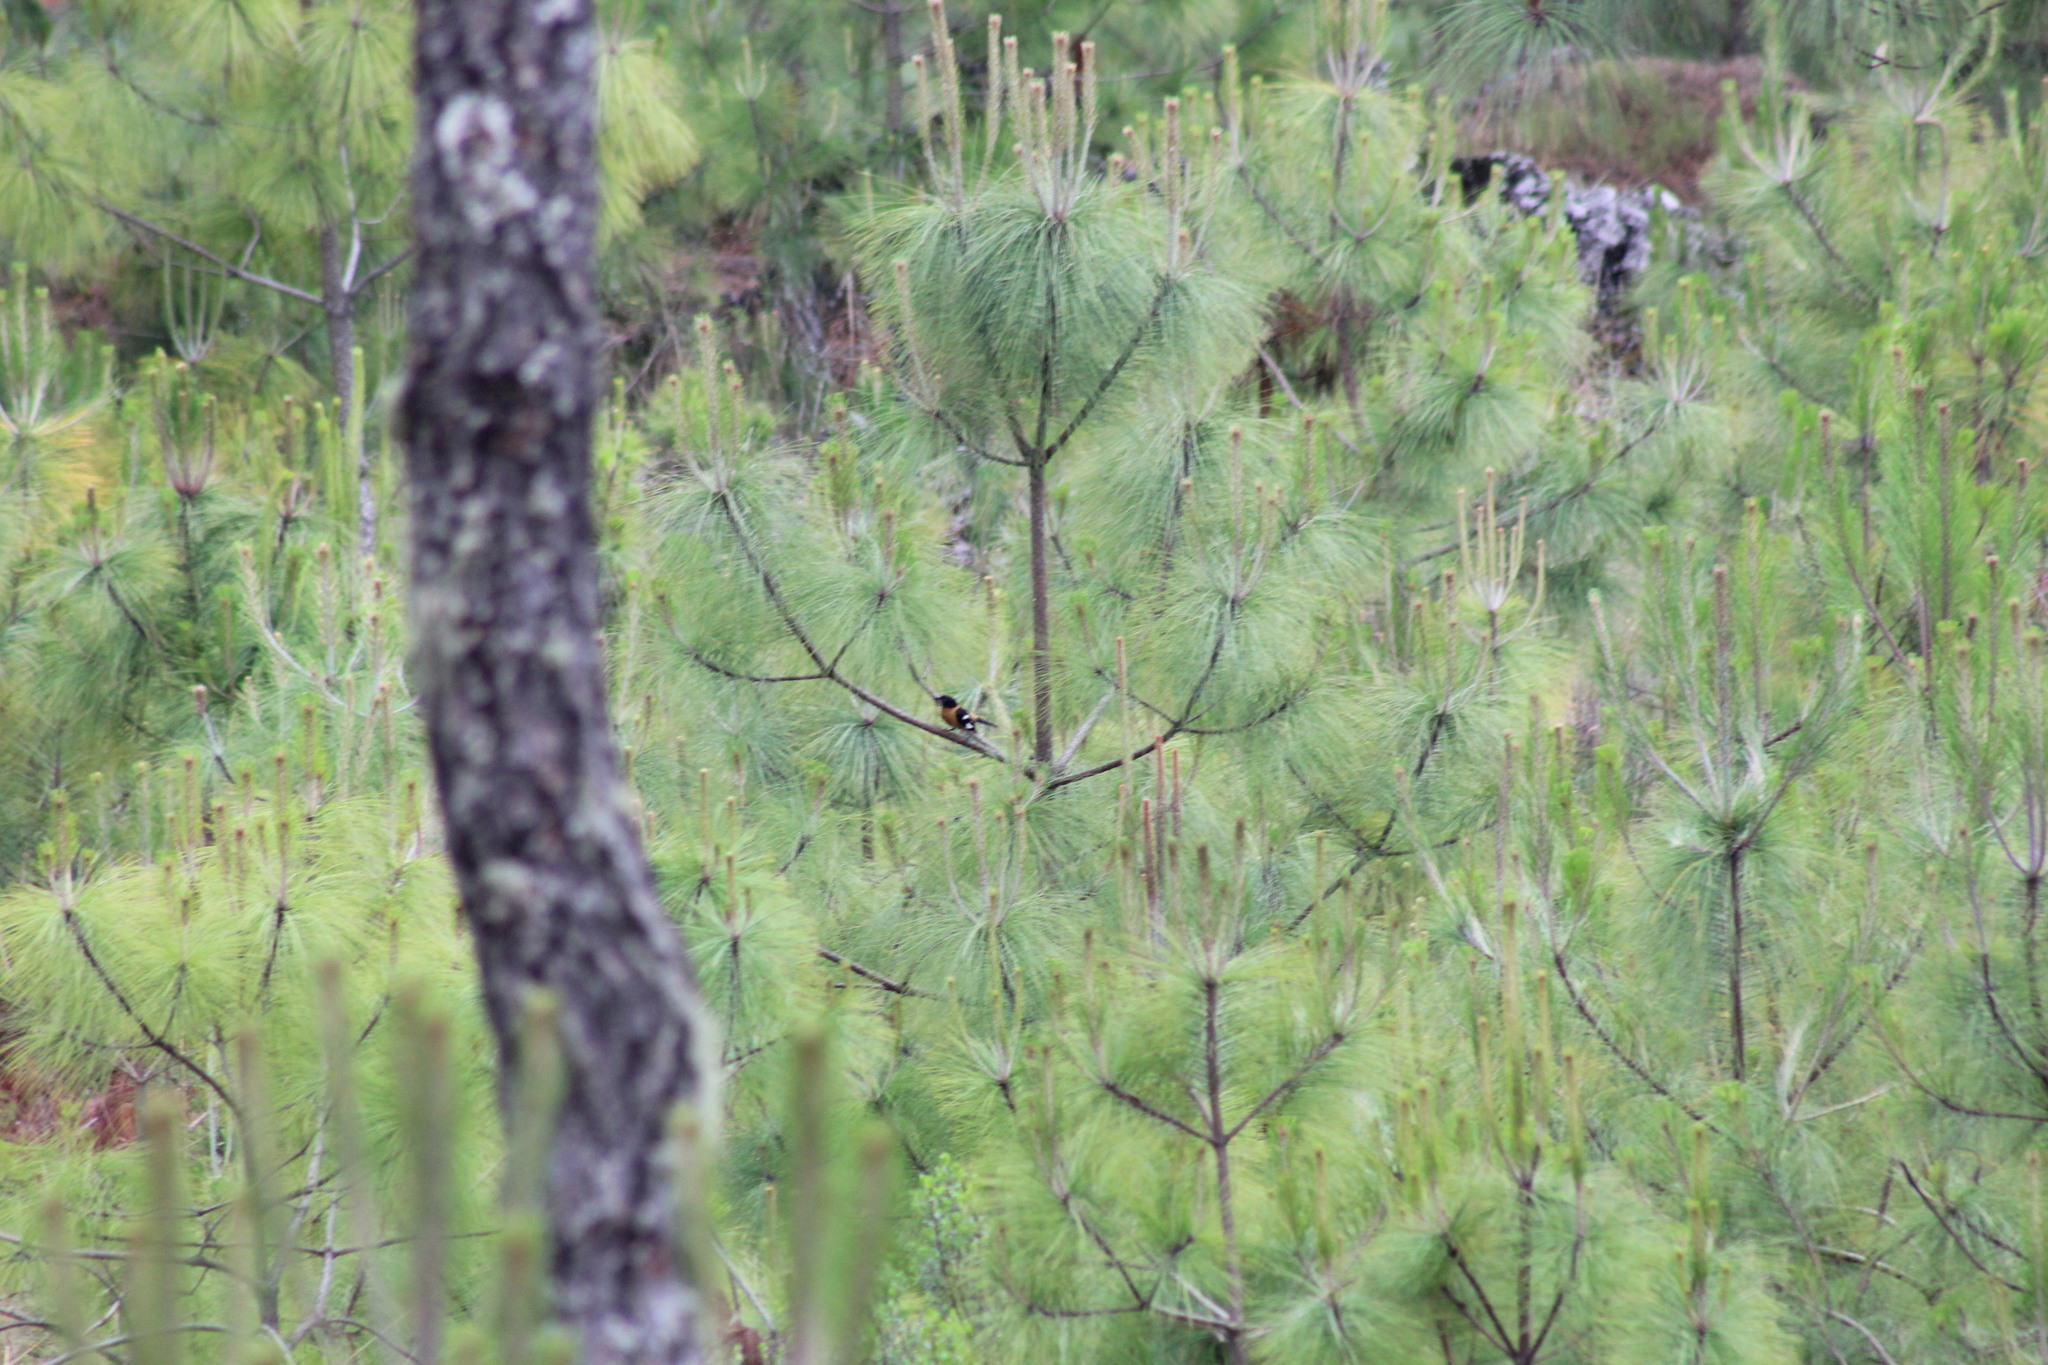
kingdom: Animalia
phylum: Chordata
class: Aves
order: Passeriformes
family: Cardinalidae
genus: Pheucticus
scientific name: Pheucticus melanocephalus
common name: Black-headed grosbeak
